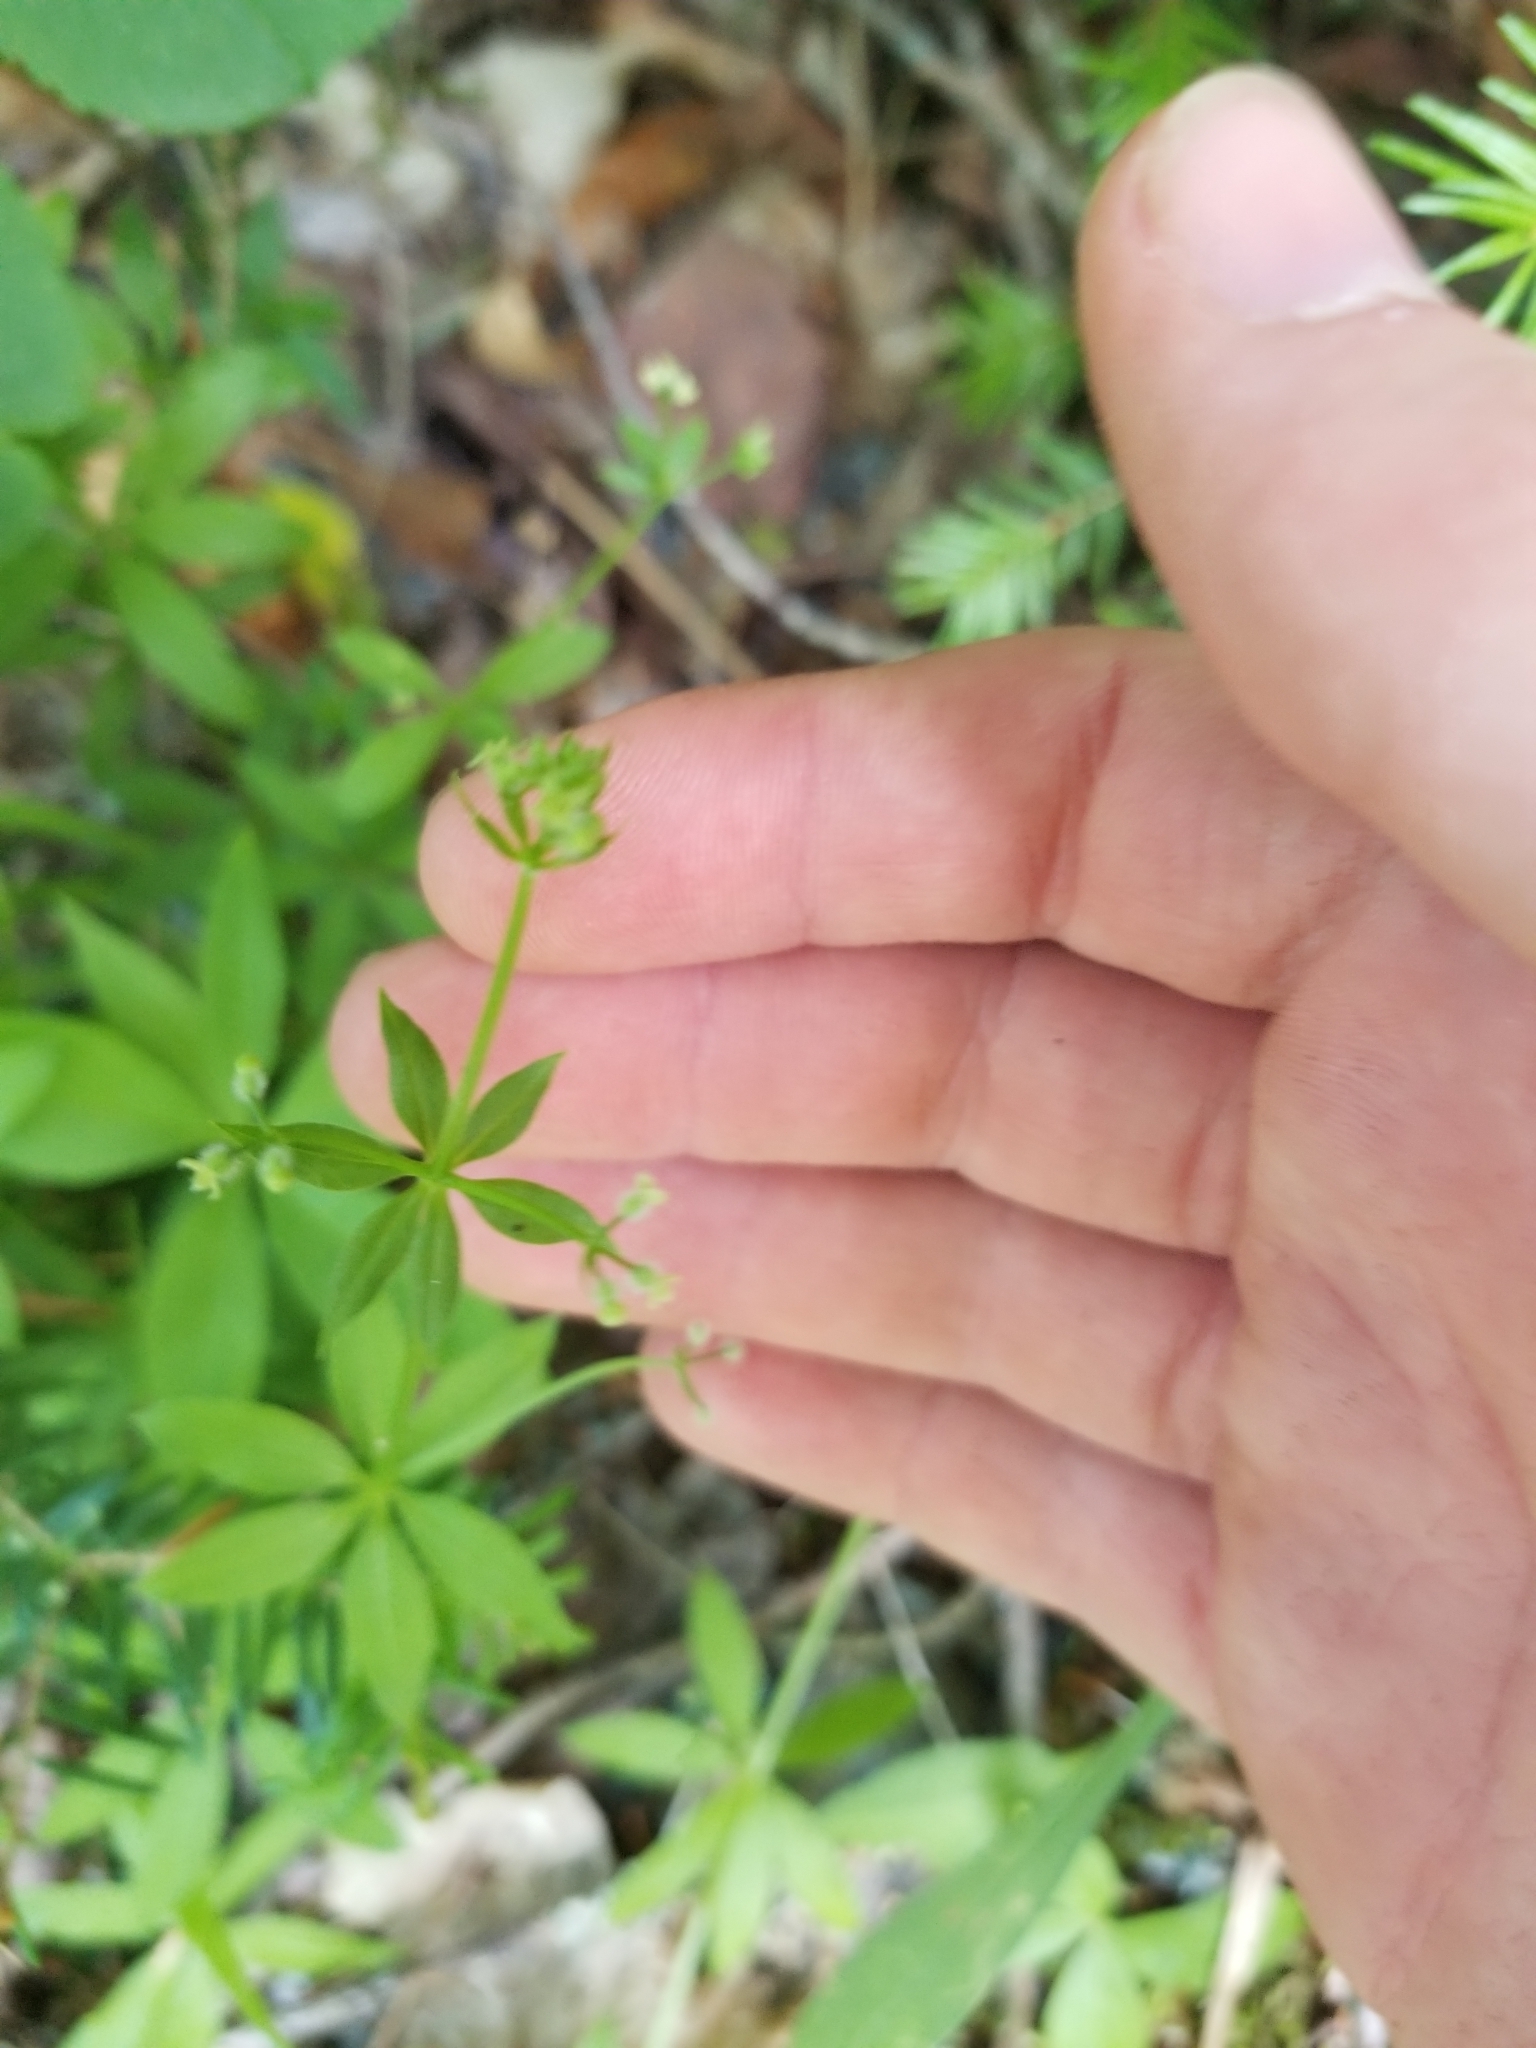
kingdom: Plantae
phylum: Tracheophyta
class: Magnoliopsida
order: Gentianales
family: Rubiaceae
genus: Galium
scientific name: Galium triflorum
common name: Fragrant bedstraw
